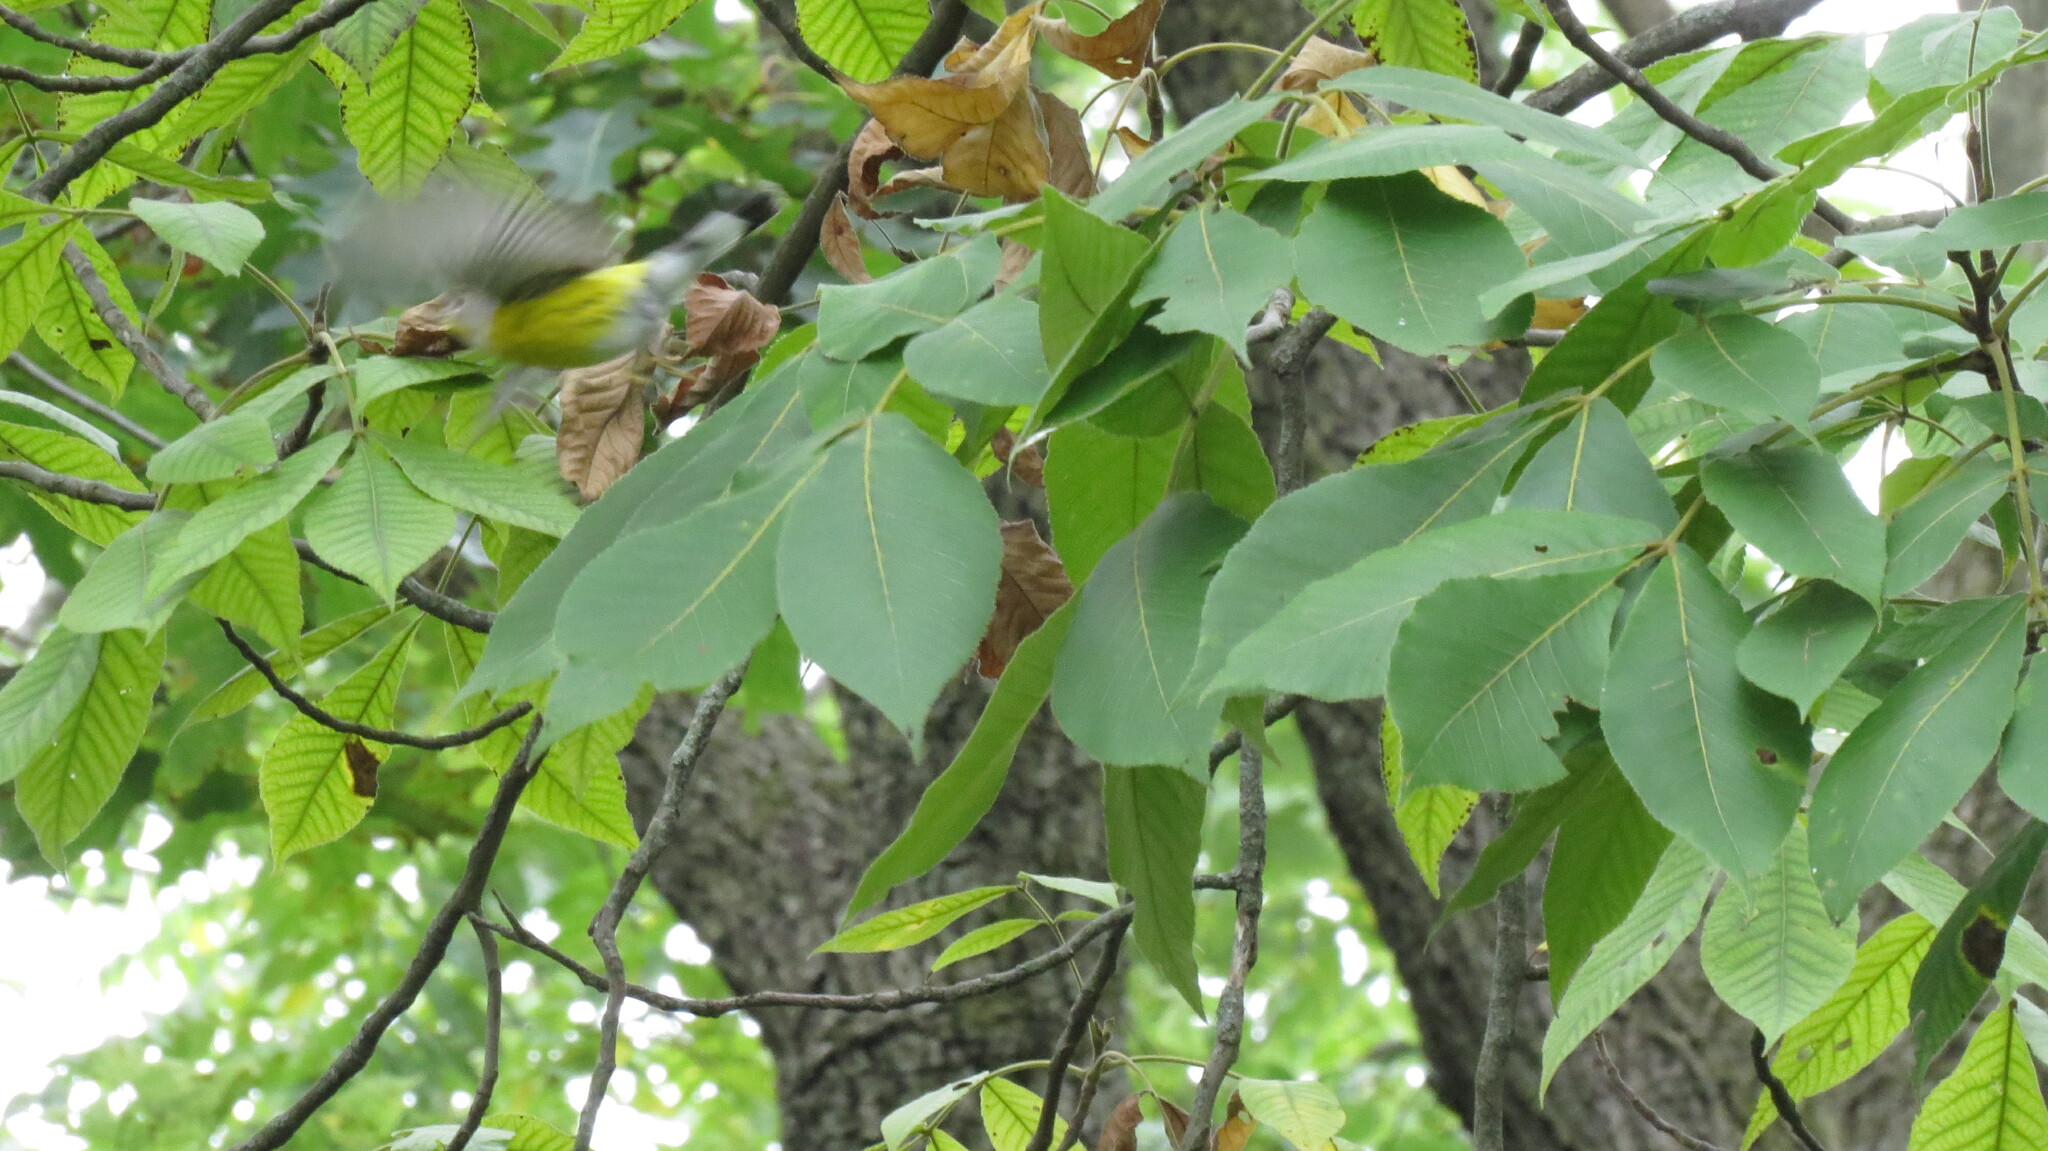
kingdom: Animalia
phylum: Chordata
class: Aves
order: Passeriformes
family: Parulidae
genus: Setophaga
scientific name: Setophaga magnolia
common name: Magnolia warbler
